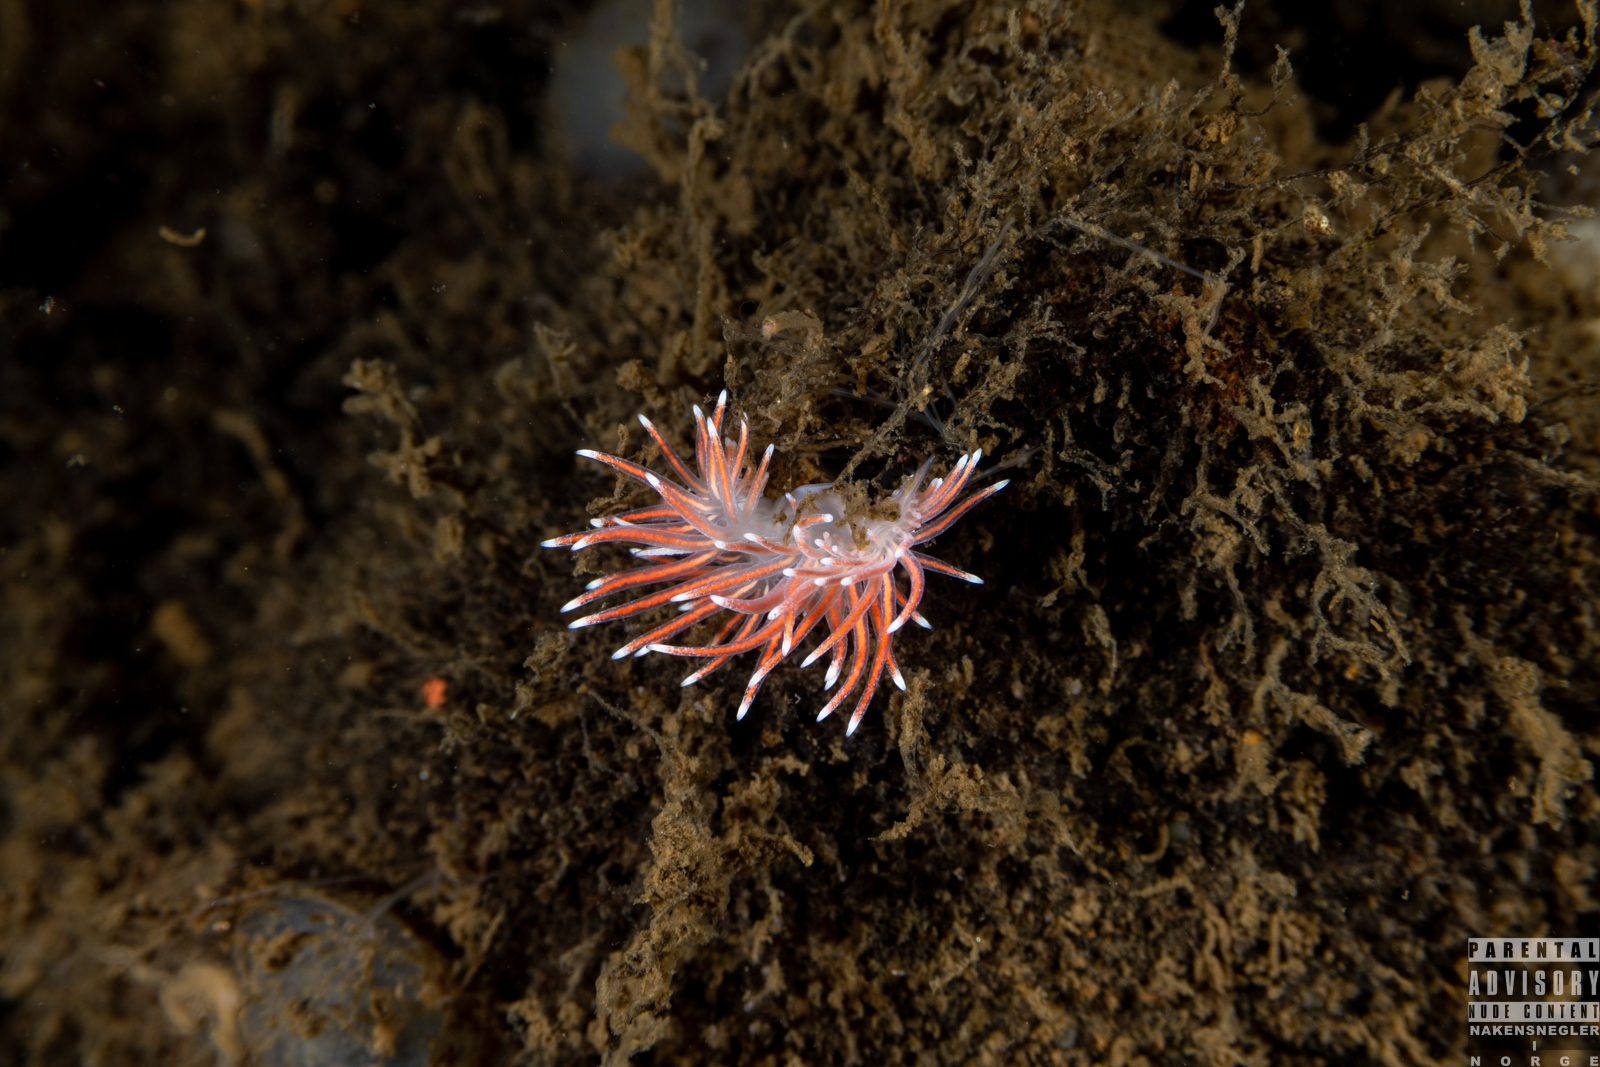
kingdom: Animalia
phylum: Mollusca
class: Gastropoda
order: Nudibranchia
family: Flabellinidae
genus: Carronella
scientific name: Carronella pellucida
